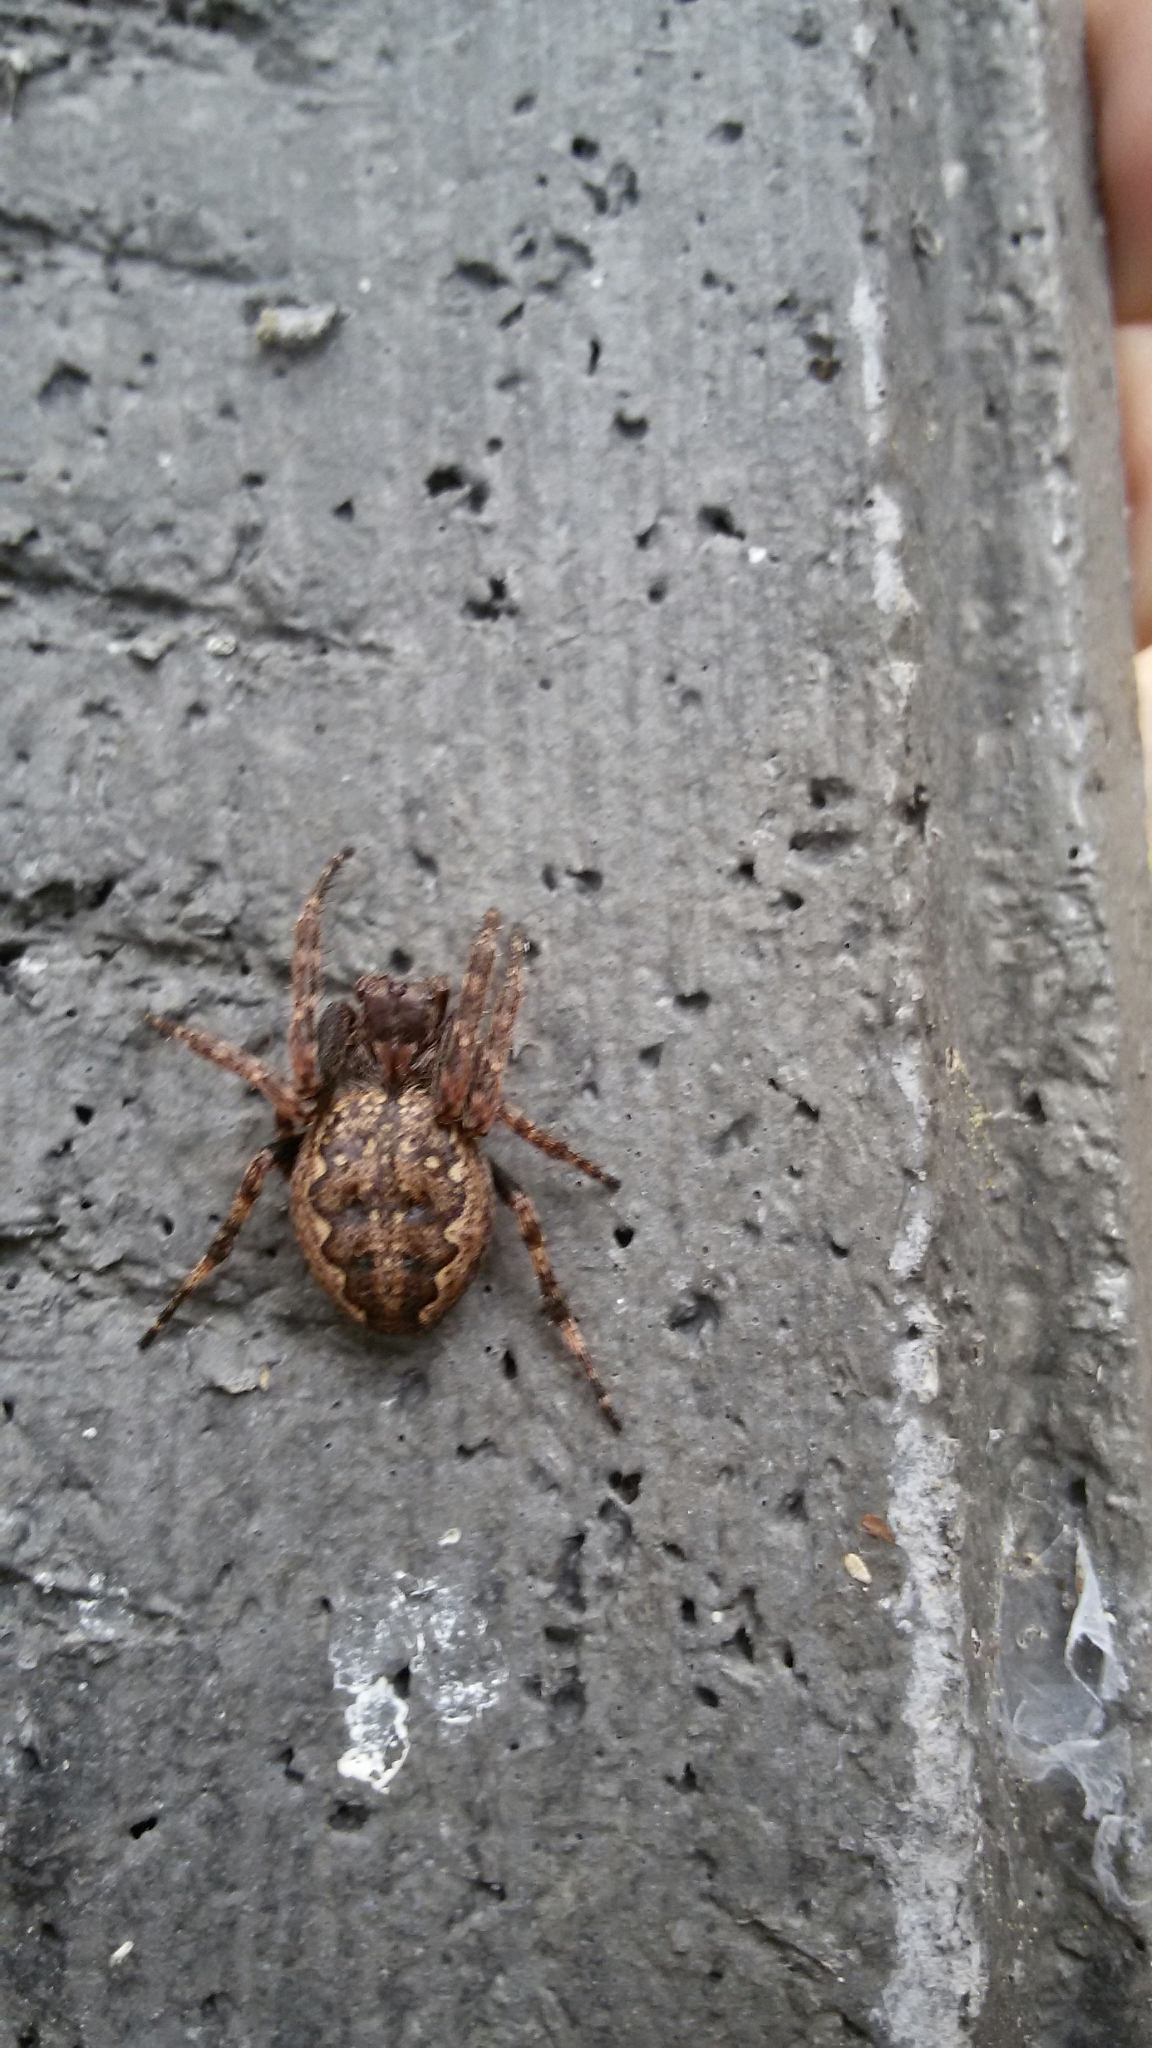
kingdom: Animalia
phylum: Arthropoda
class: Arachnida
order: Araneae
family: Araneidae
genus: Nuctenea
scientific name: Nuctenea umbratica
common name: Toad spider
